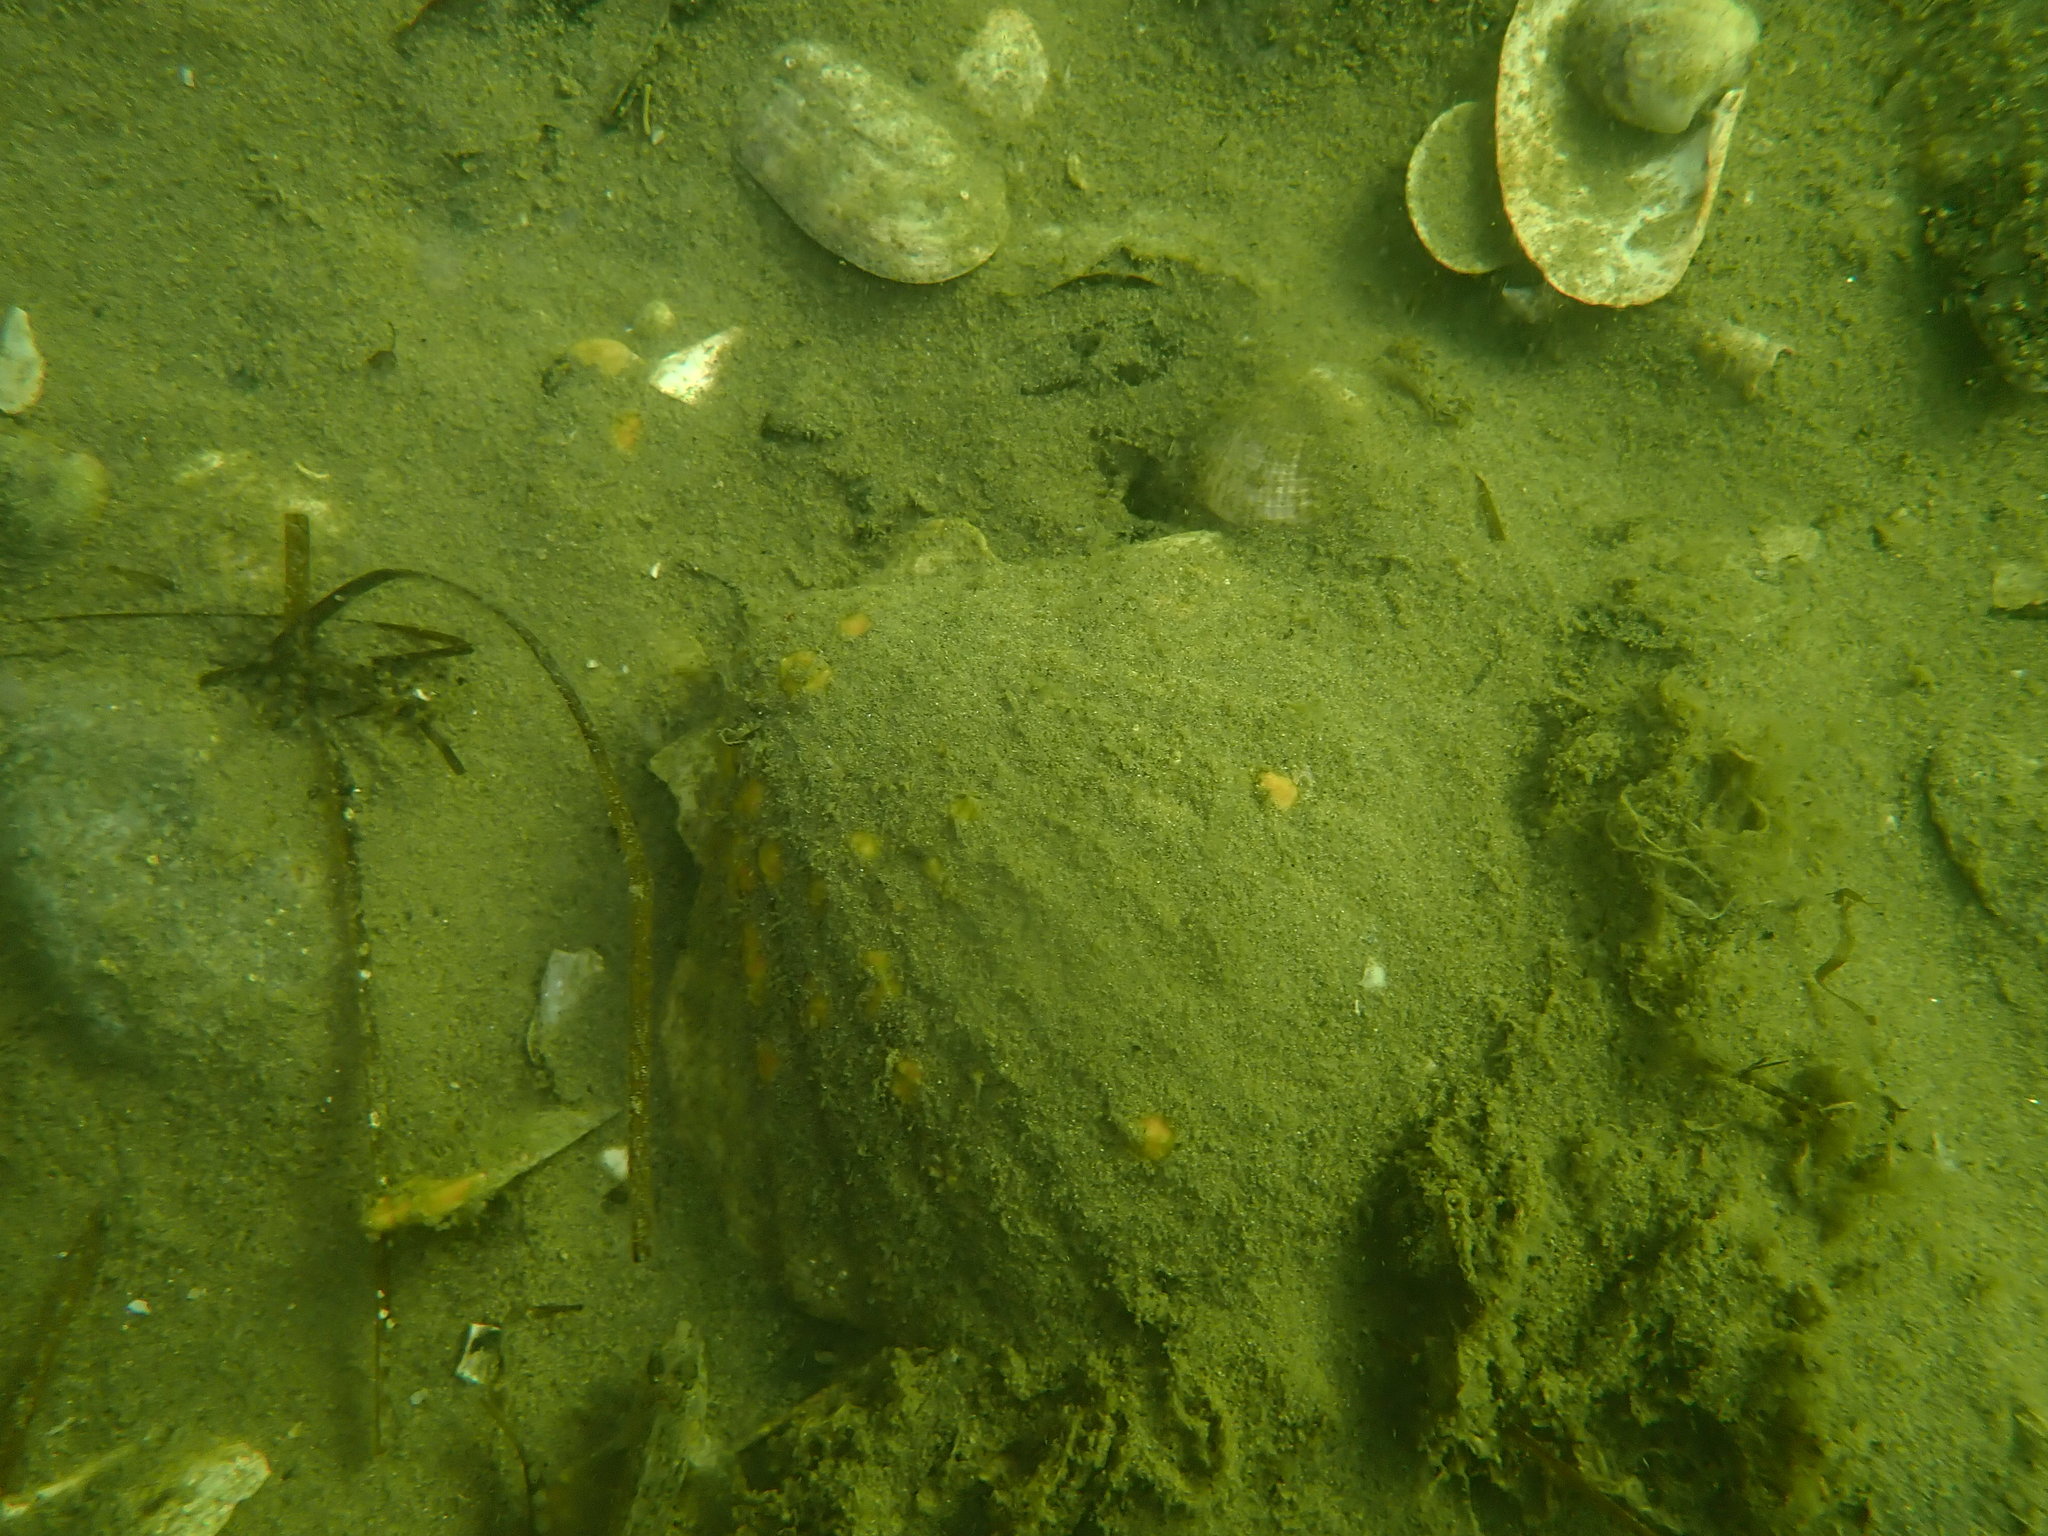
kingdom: Animalia
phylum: Mollusca
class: Bivalvia
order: Pectinida
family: Pectinidae
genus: Pecten
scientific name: Pecten novaezelandiae
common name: New zealand scallop
